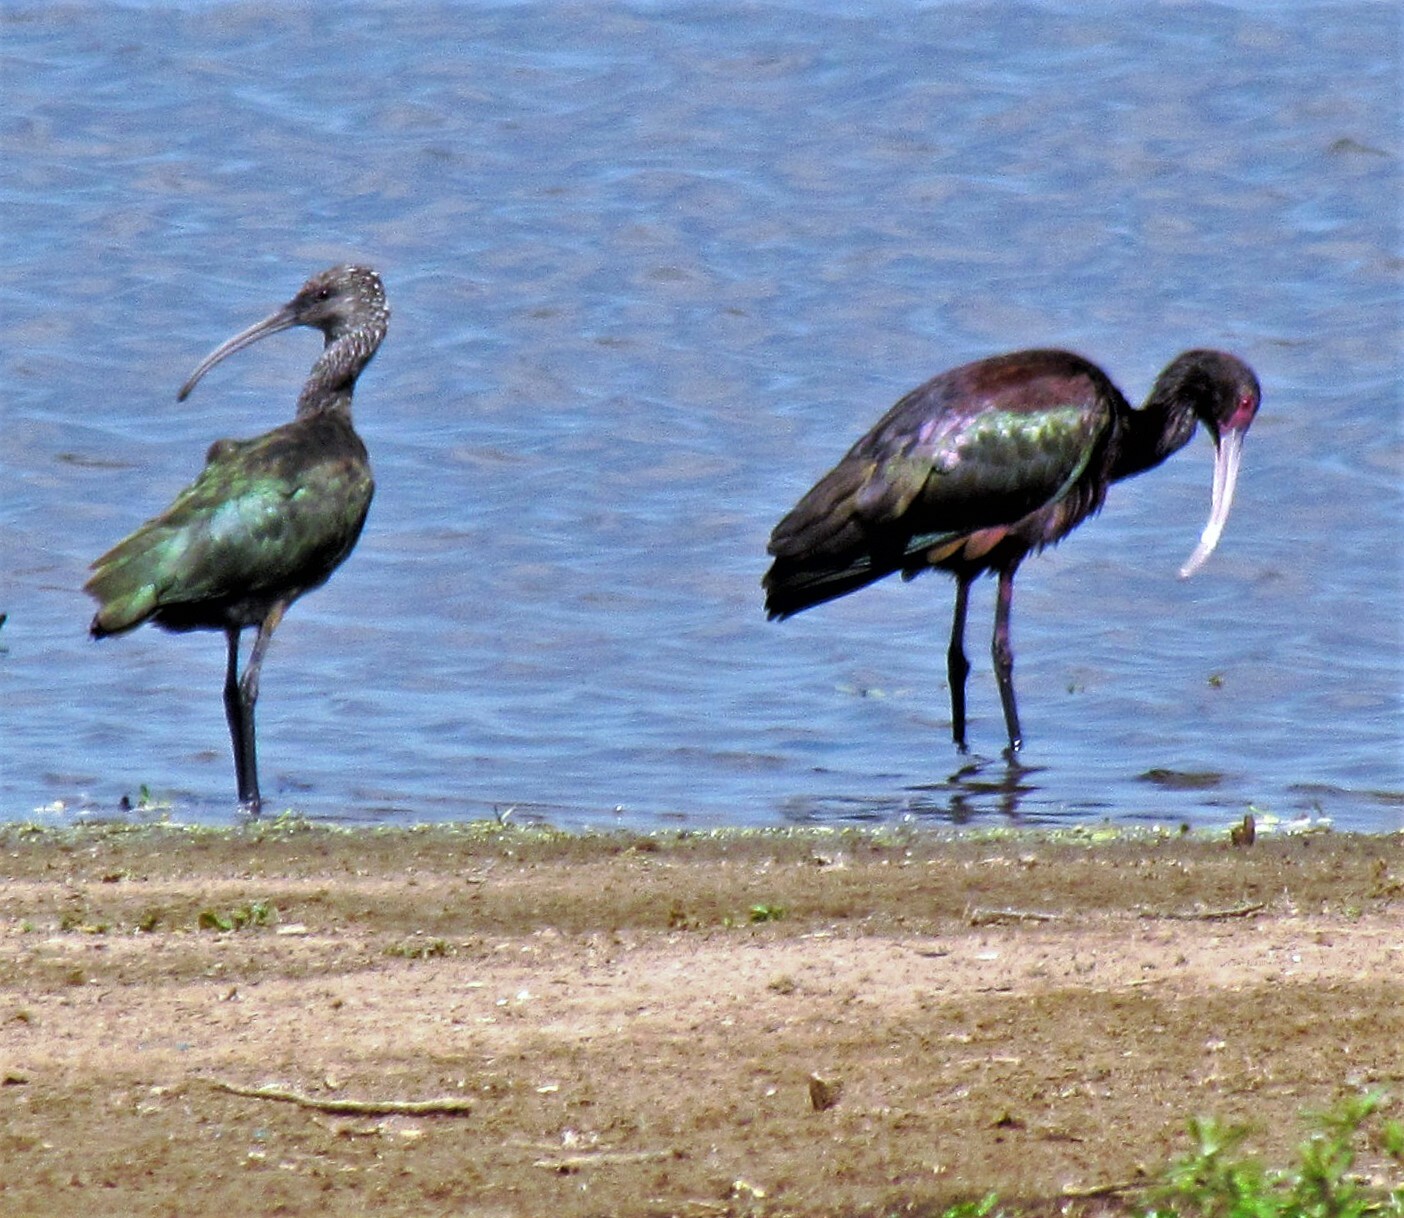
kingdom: Animalia
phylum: Chordata
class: Aves
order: Pelecaniformes
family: Threskiornithidae
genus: Plegadis
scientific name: Plegadis chihi
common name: White-faced ibis
